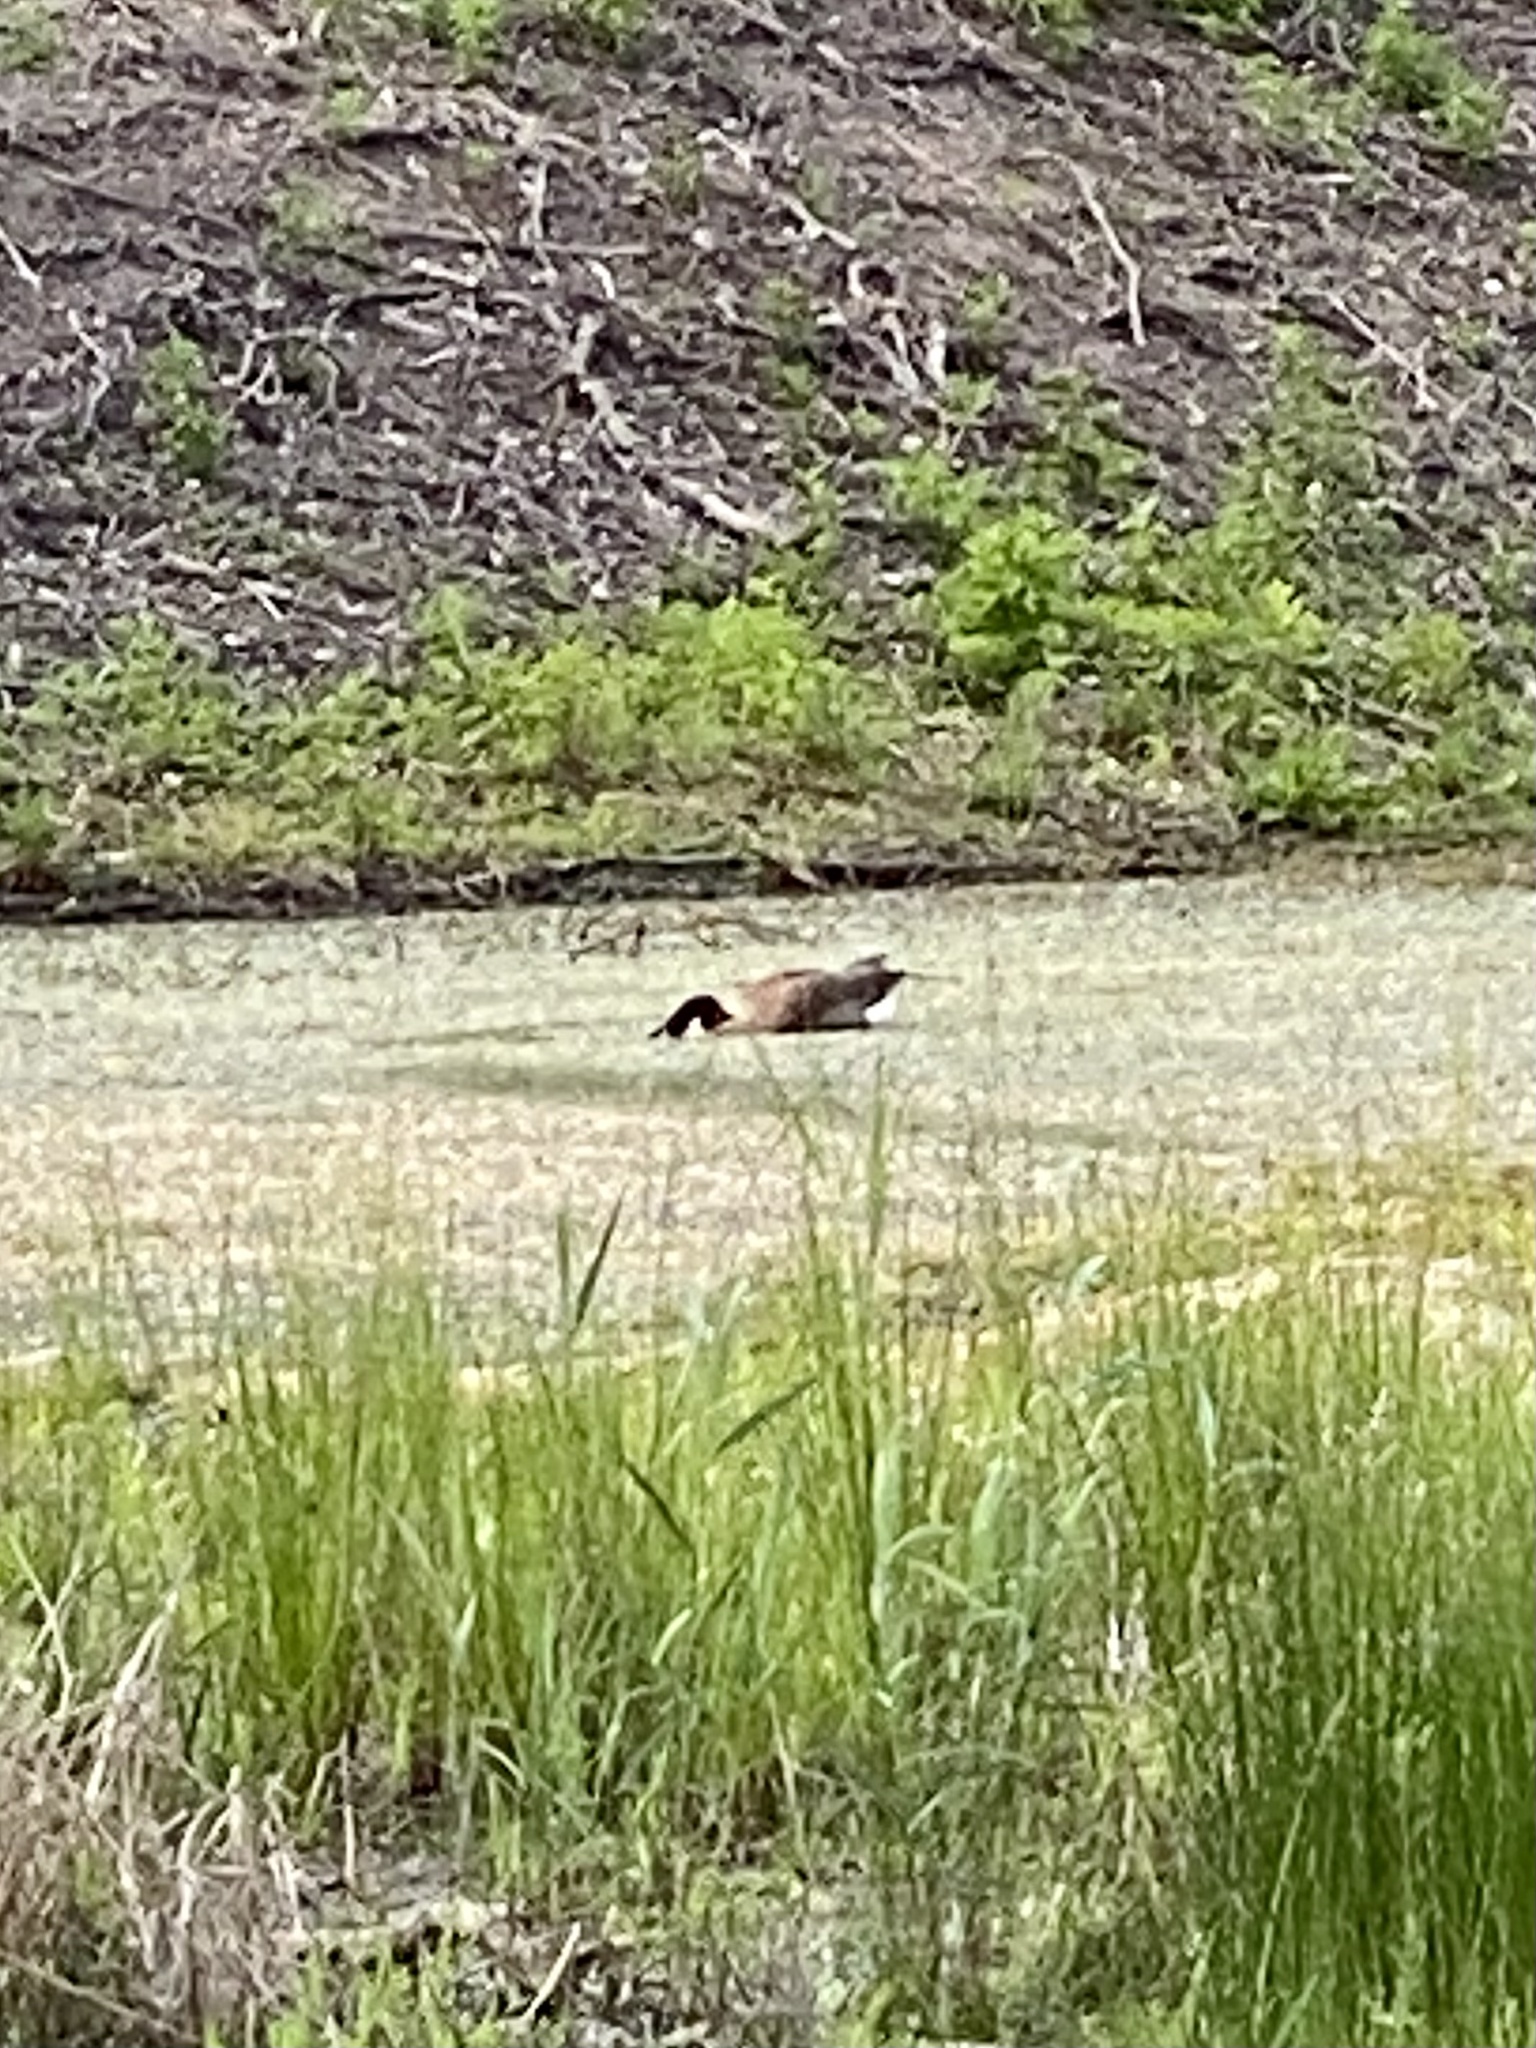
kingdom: Animalia
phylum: Chordata
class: Aves
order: Anseriformes
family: Anatidae
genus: Branta
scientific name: Branta canadensis
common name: Canada goose
